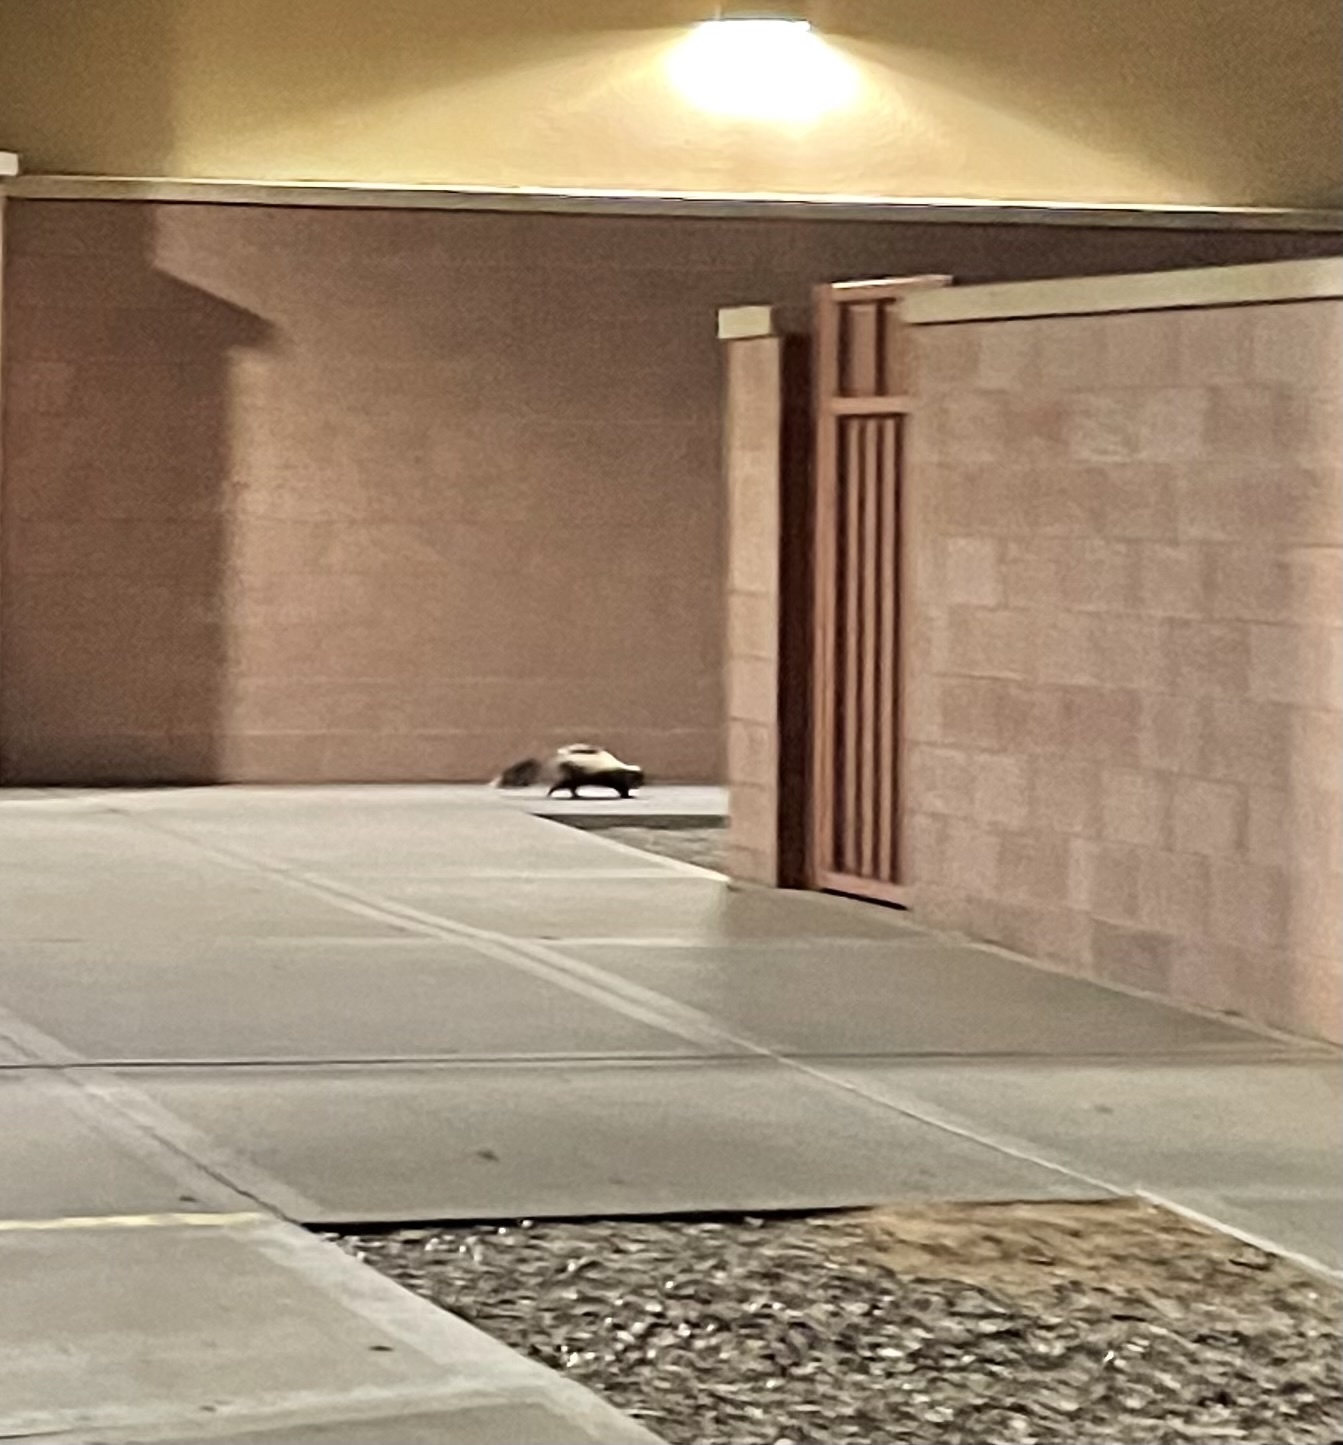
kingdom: Animalia
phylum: Chordata
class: Mammalia
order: Carnivora
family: Mephitidae
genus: Mephitis
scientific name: Mephitis mephitis
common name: Striped skunk
